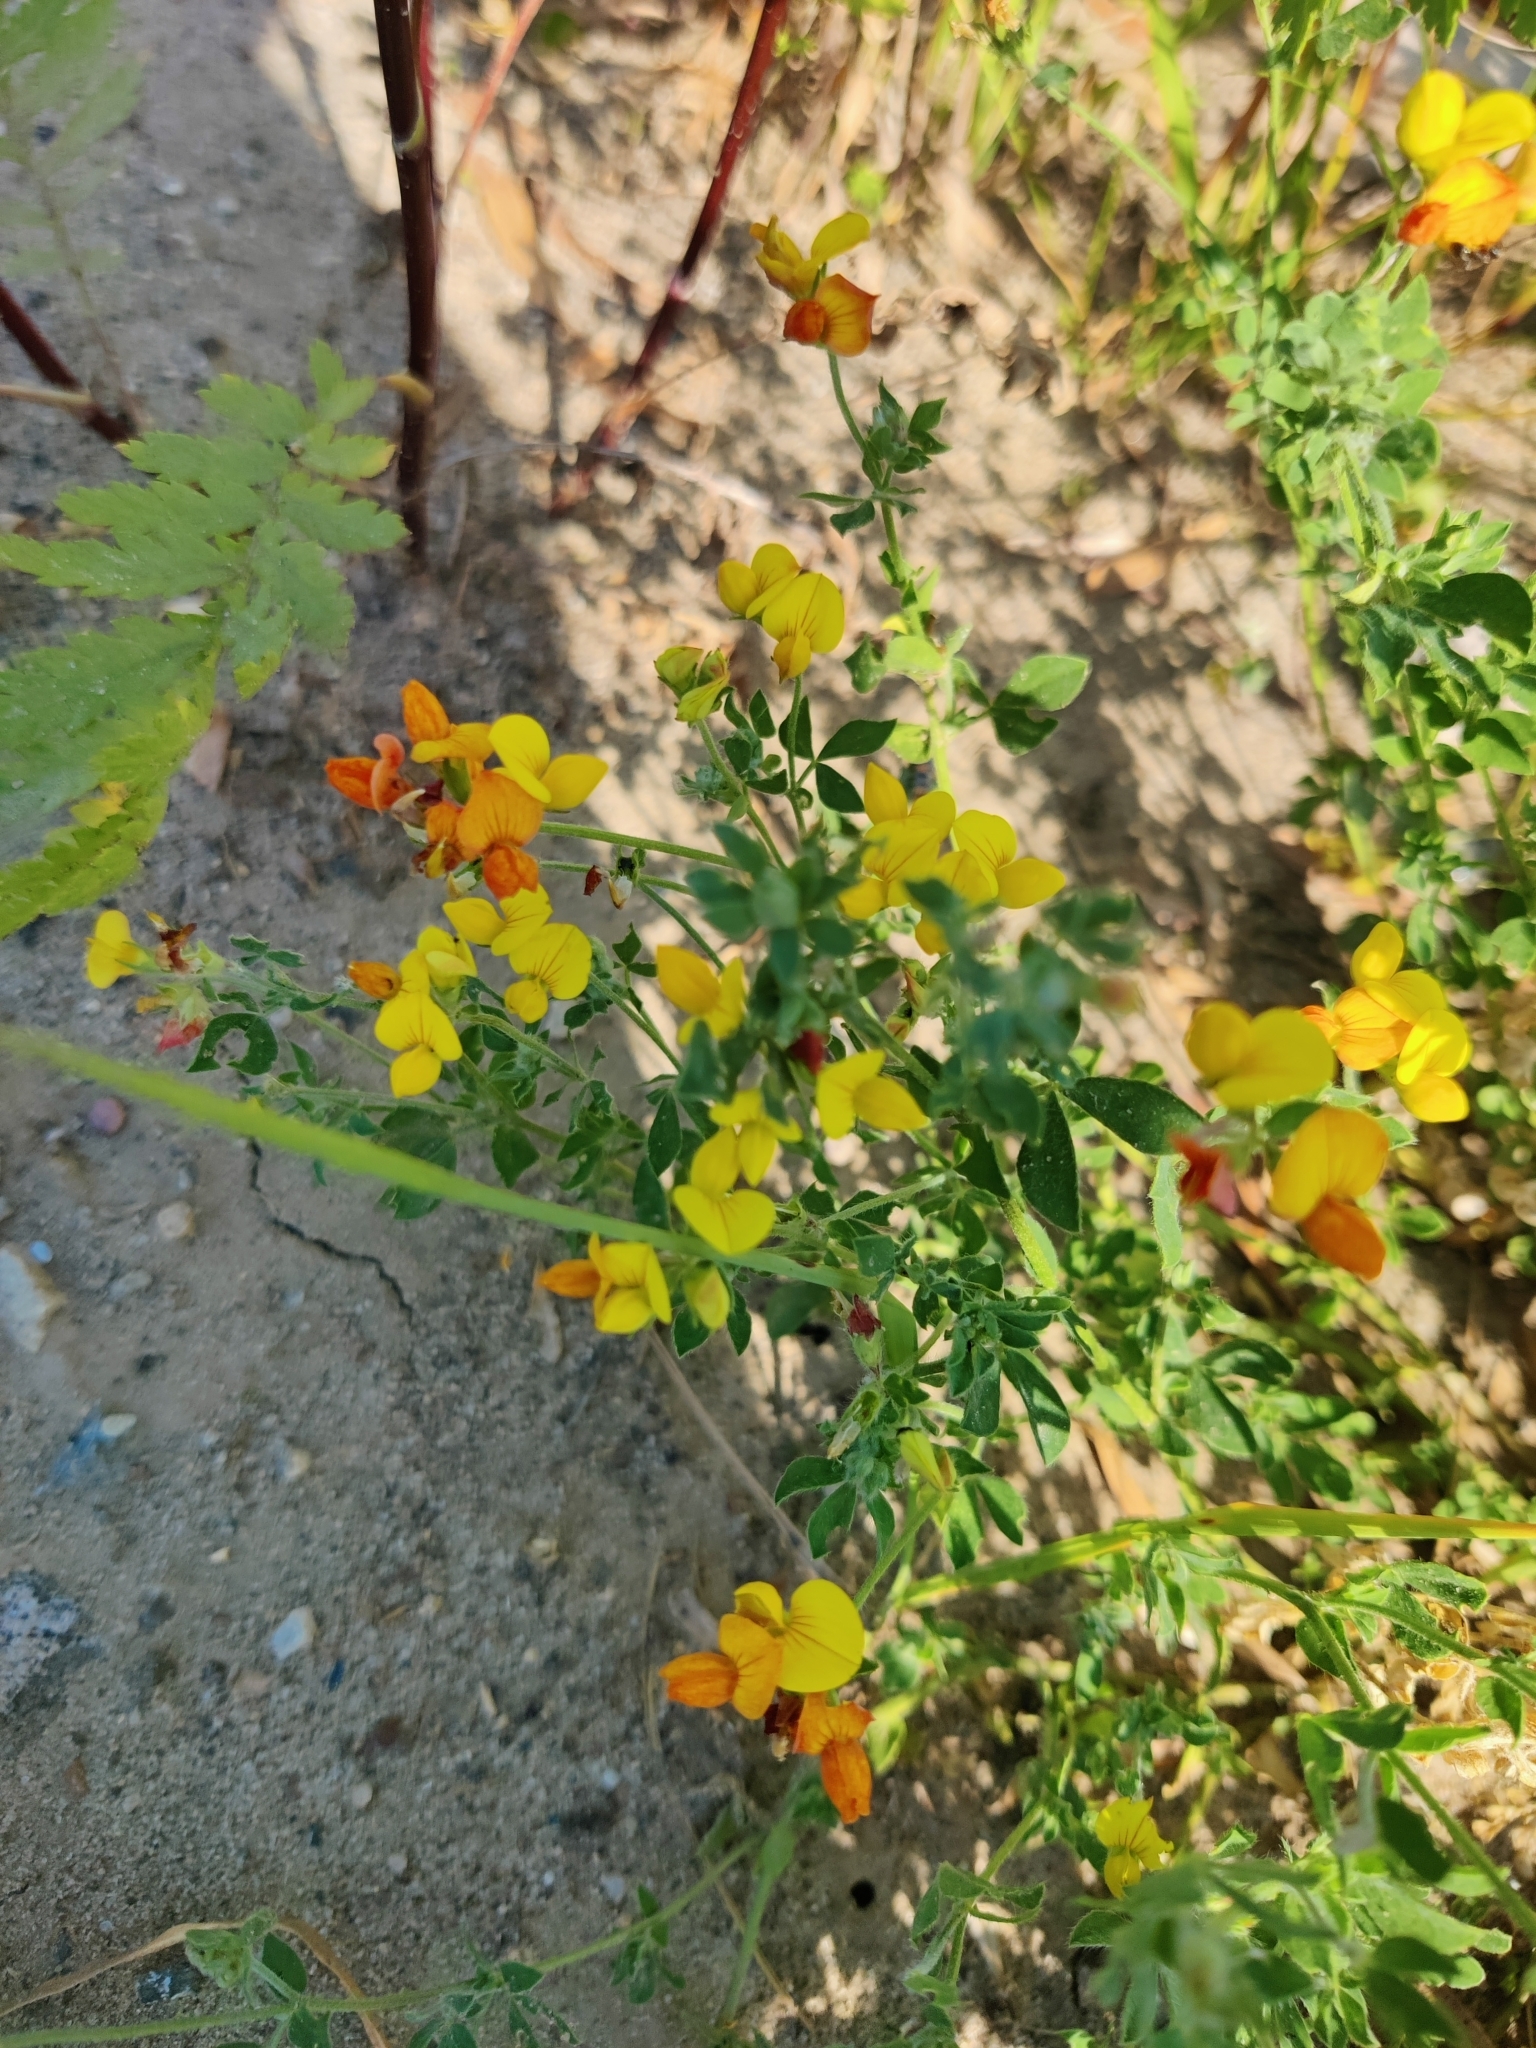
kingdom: Plantae
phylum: Tracheophyta
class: Magnoliopsida
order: Fabales
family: Fabaceae
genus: Lotus
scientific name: Lotus corniculatus
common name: Common bird's-foot-trefoil
